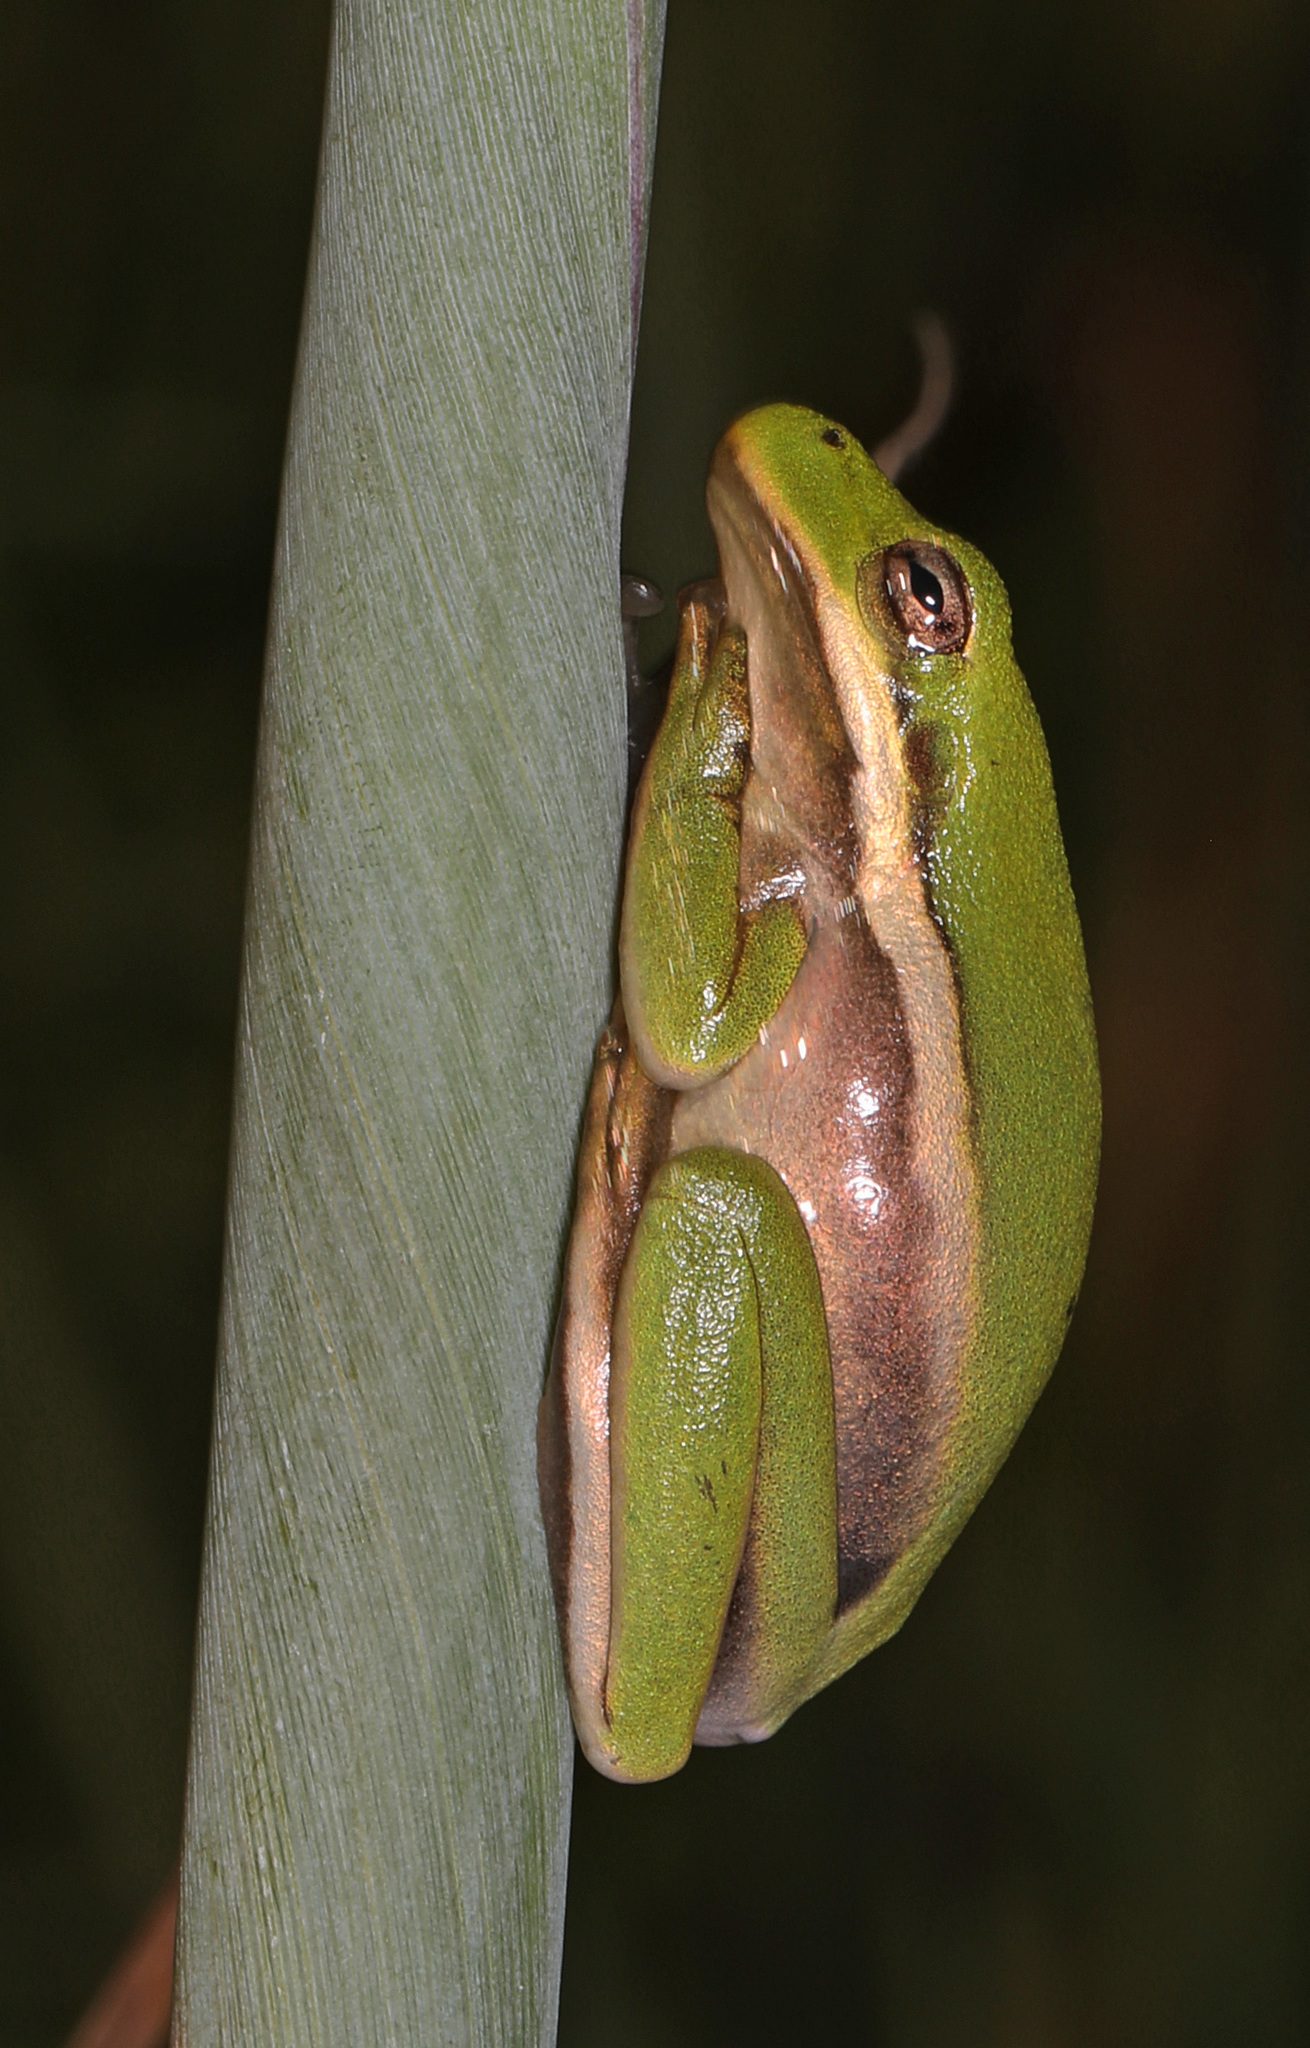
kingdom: Animalia
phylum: Chordata
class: Amphibia
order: Anura
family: Hylidae
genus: Dryophytes
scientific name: Dryophytes cinereus
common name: Green treefrog
